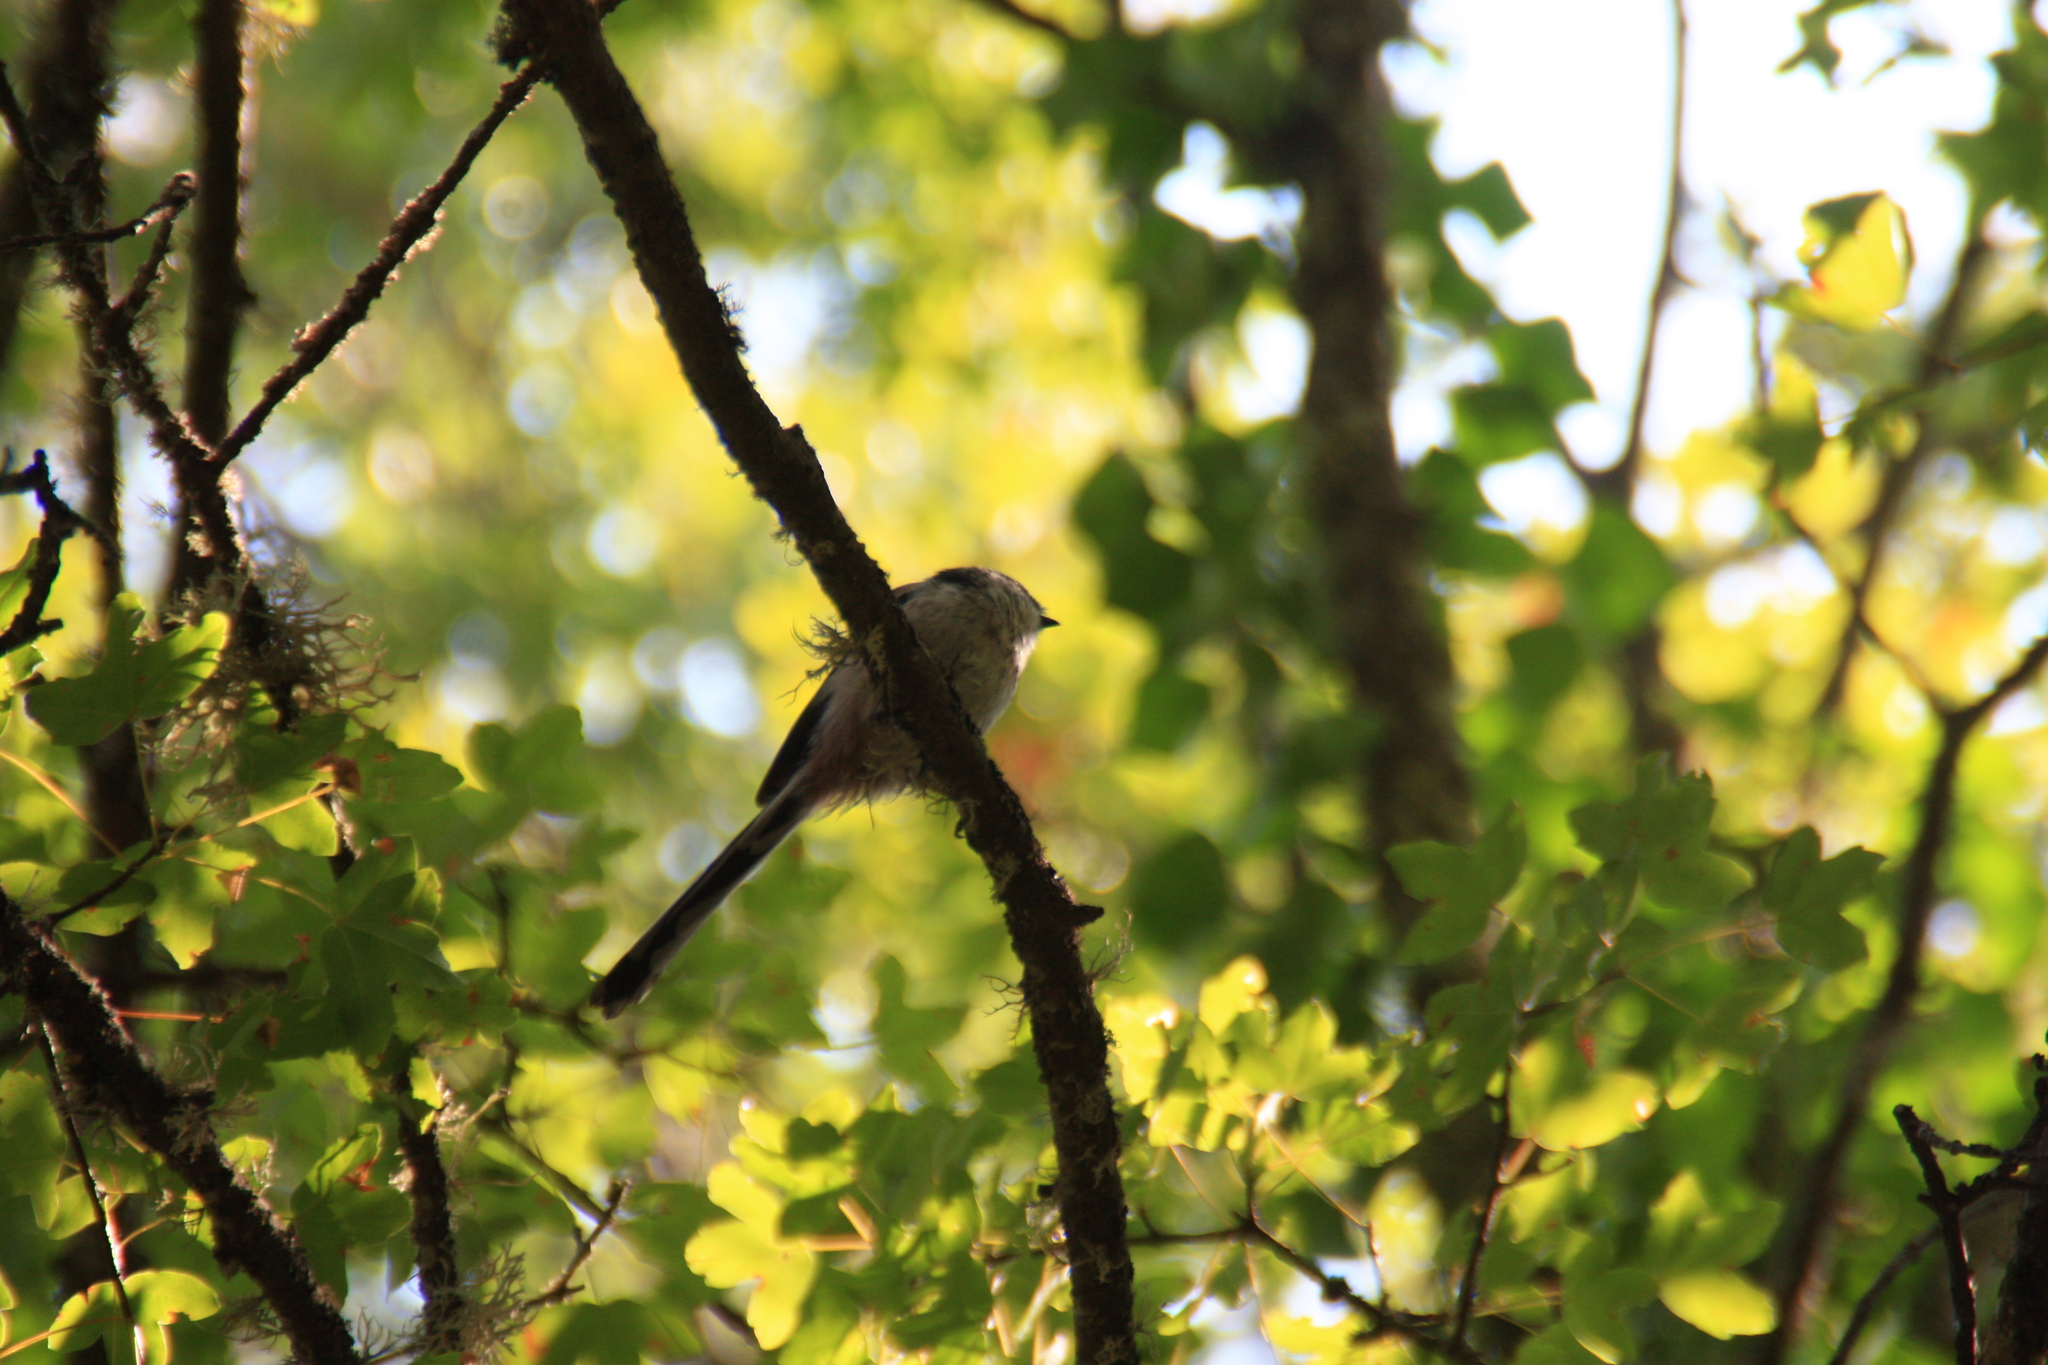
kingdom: Animalia
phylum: Chordata
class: Aves
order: Passeriformes
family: Aegithalidae
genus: Aegithalos
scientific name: Aegithalos caudatus
